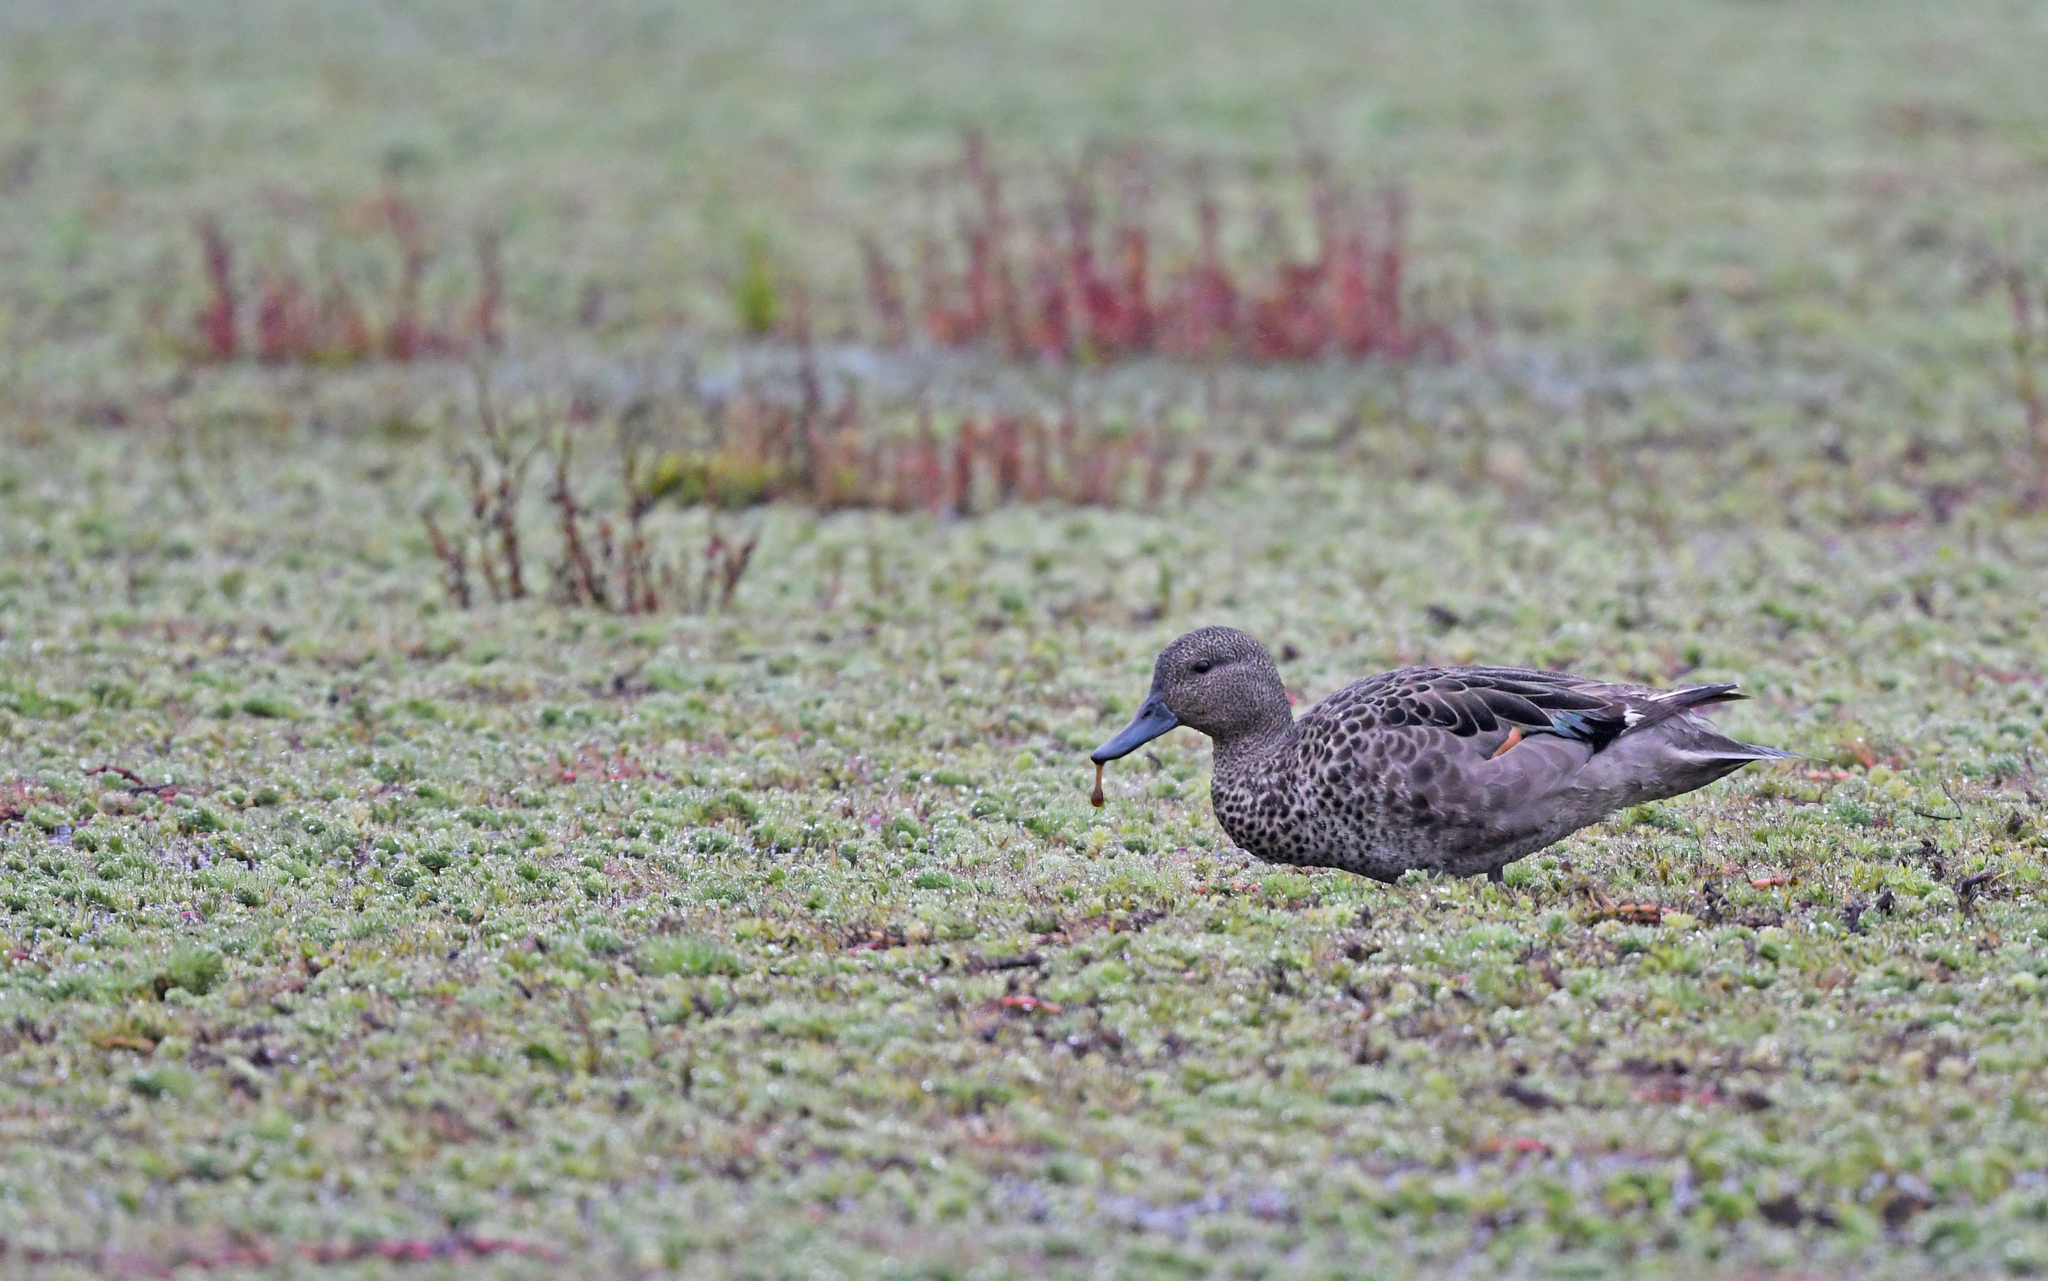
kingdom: Animalia
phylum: Chordata
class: Aves
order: Anseriformes
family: Anatidae
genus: Anas
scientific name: Anas andium
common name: Andean teal
